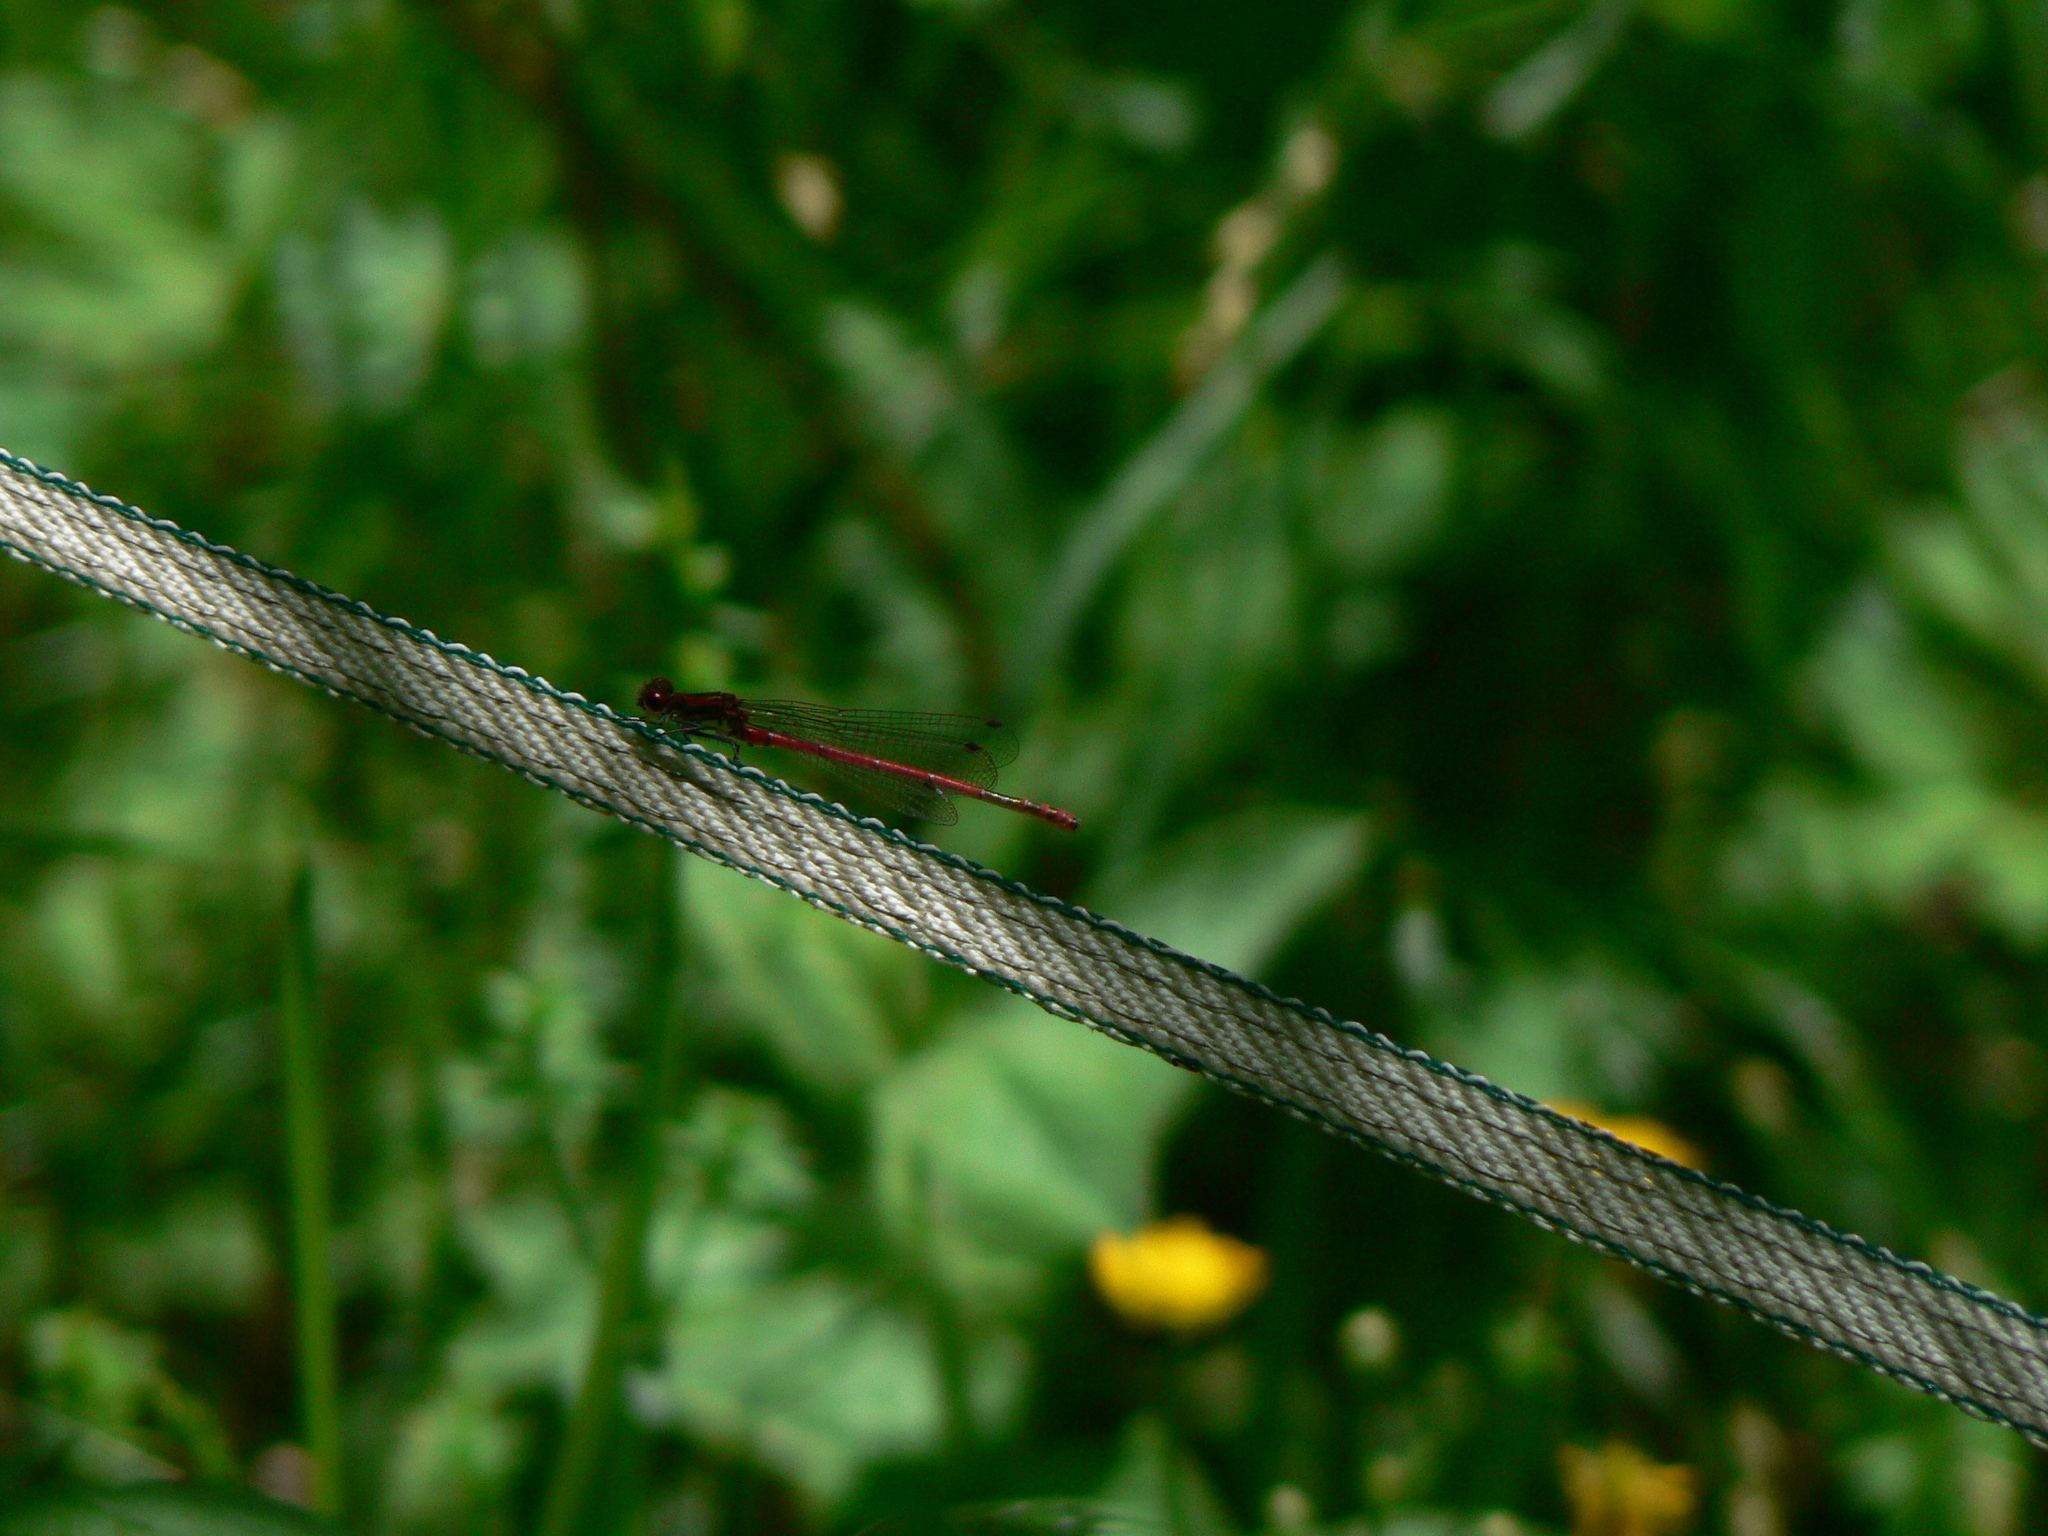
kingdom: Animalia
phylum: Arthropoda
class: Insecta
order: Odonata
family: Coenagrionidae
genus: Pyrrhosoma
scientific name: Pyrrhosoma nymphula
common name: Large red damsel
